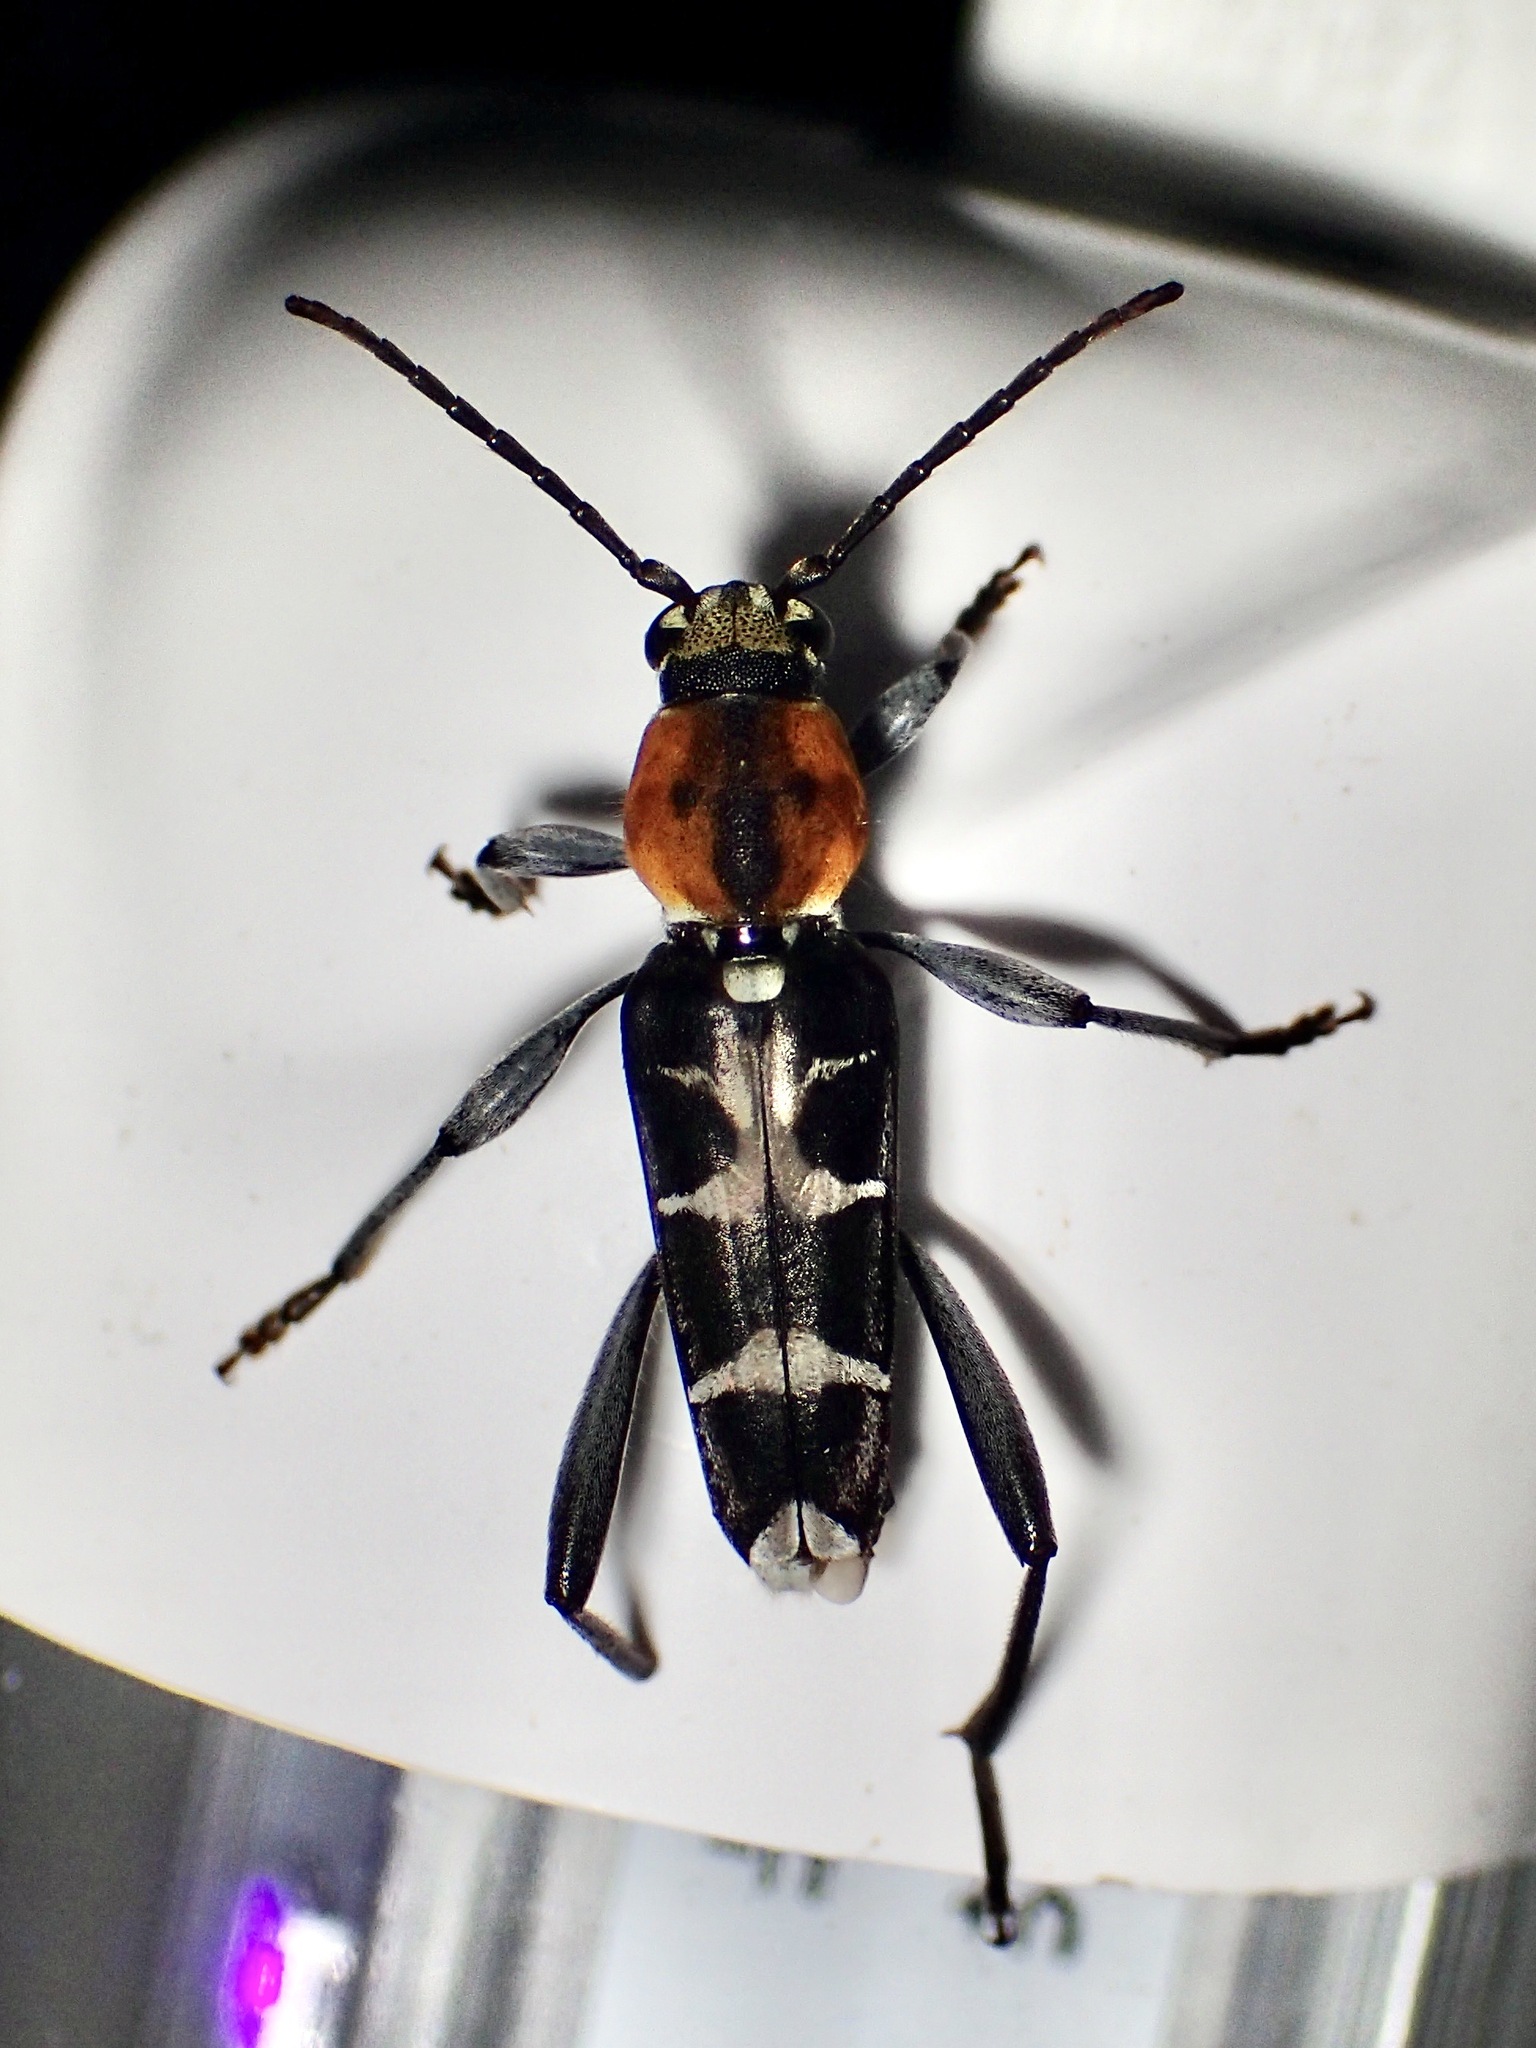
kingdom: Animalia
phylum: Arthropoda
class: Insecta
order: Coleoptera
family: Cerambycidae
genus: Xylotrechus
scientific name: Xylotrechus reginae
